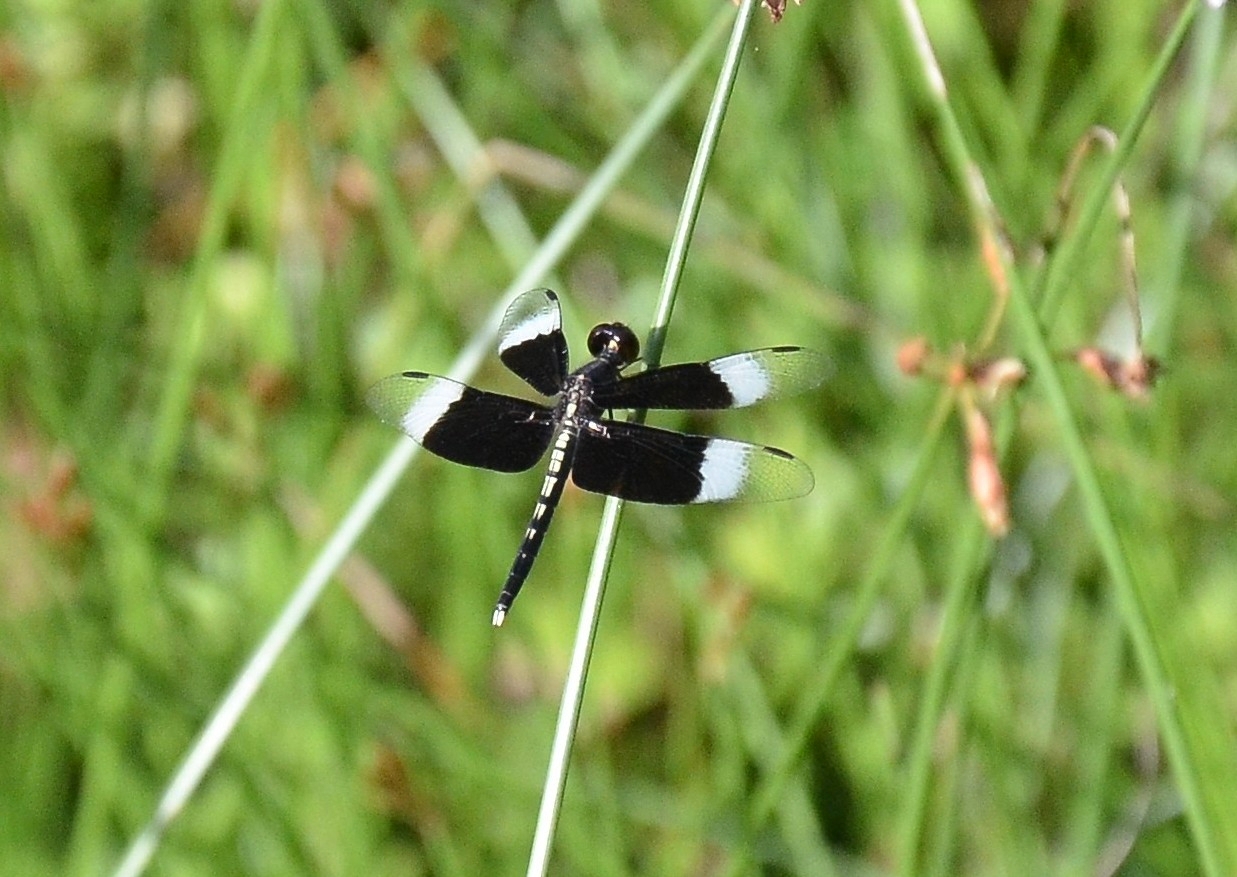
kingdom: Animalia
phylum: Arthropoda
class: Insecta
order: Odonata
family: Libellulidae
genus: Neurothemis
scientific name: Neurothemis tullia
